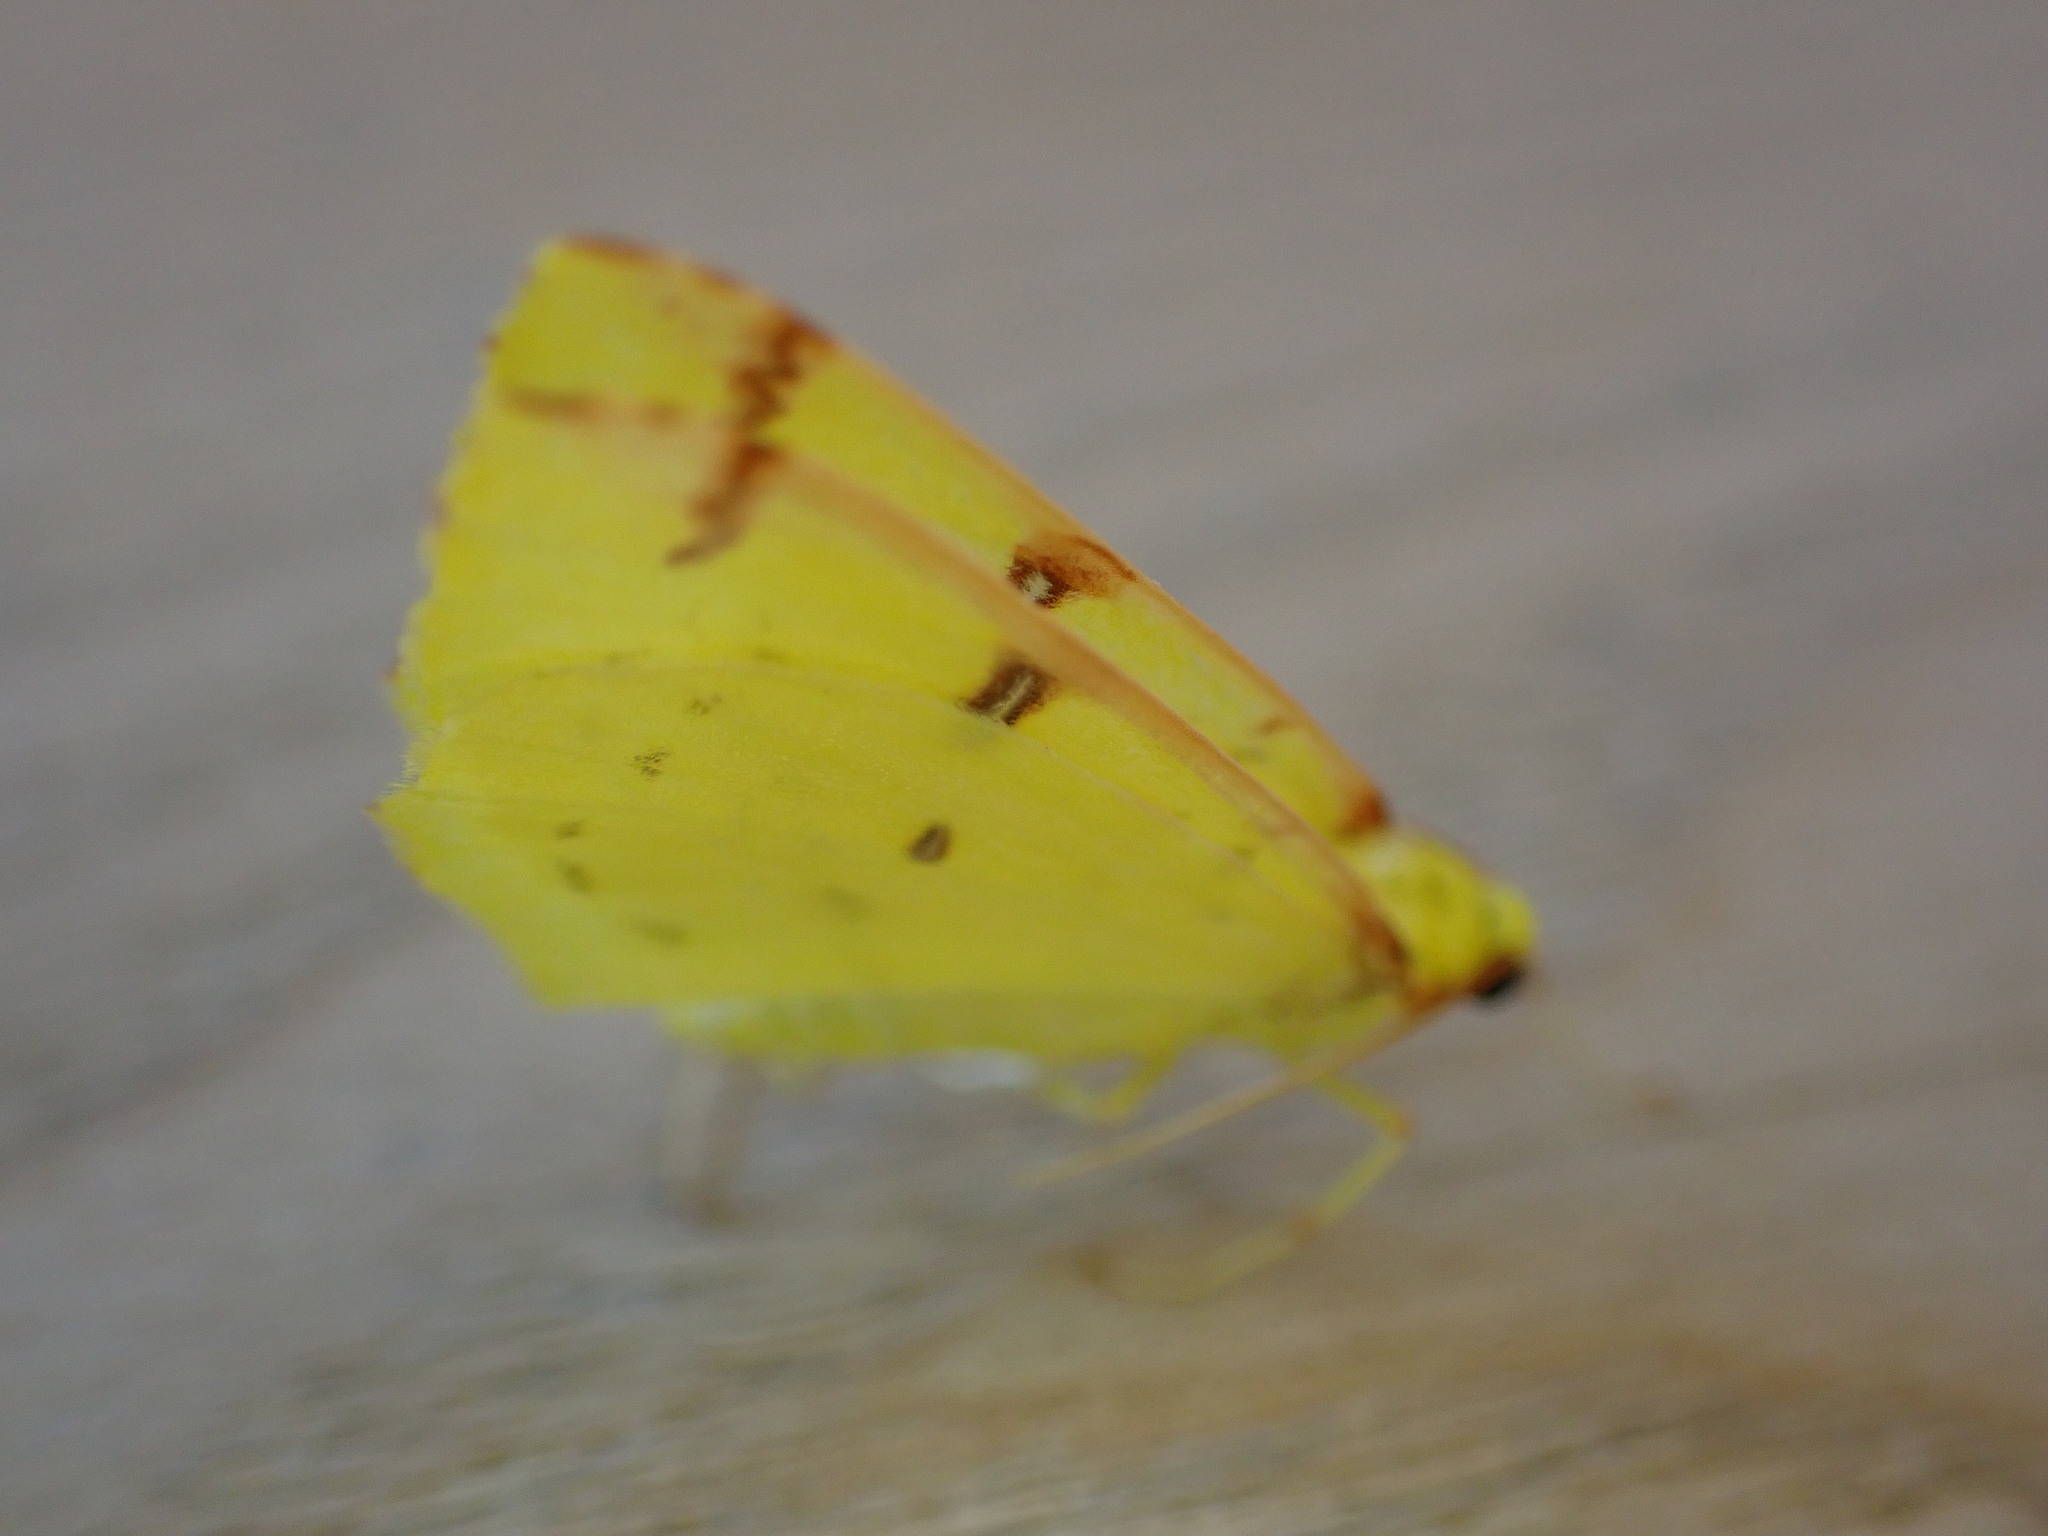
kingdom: Animalia
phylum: Arthropoda
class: Insecta
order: Lepidoptera
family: Geometridae
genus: Opisthograptis
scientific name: Opisthograptis luteolata
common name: Brimstone moth
